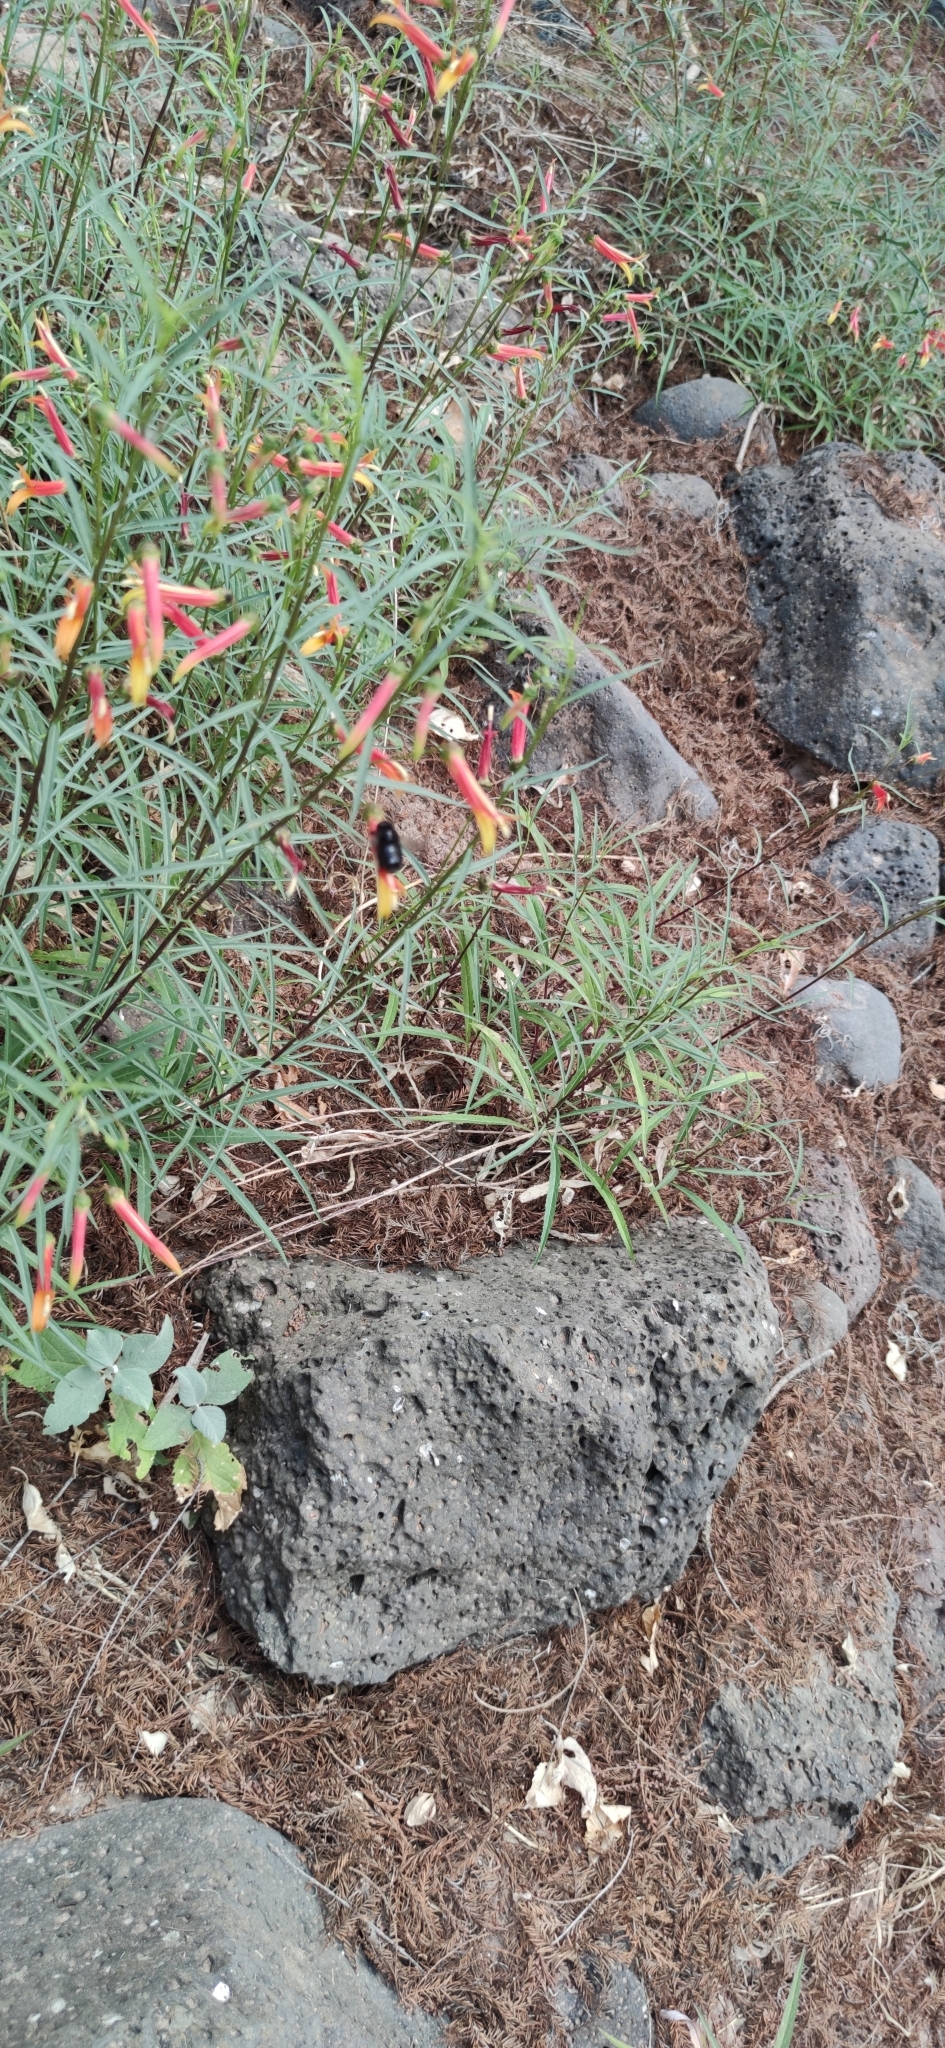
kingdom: Plantae
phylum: Tracheophyta
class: Magnoliopsida
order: Asterales
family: Campanulaceae
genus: Lobelia
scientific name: Lobelia laxiflora
